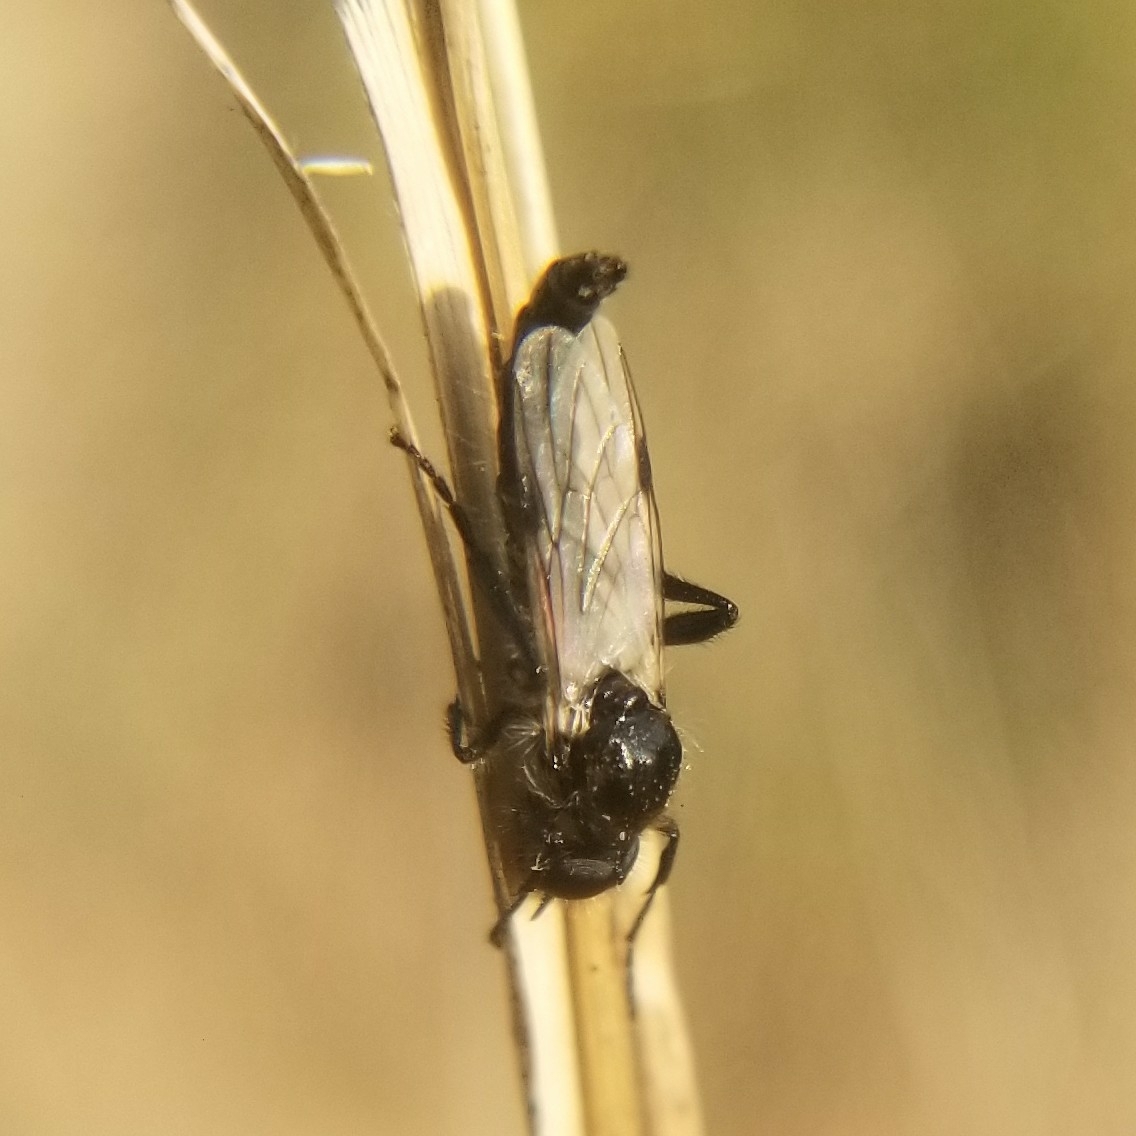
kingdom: Animalia
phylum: Arthropoda
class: Insecta
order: Diptera
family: Bibionidae
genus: Bibio
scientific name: Bibio albipennis
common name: White-winged march fly
